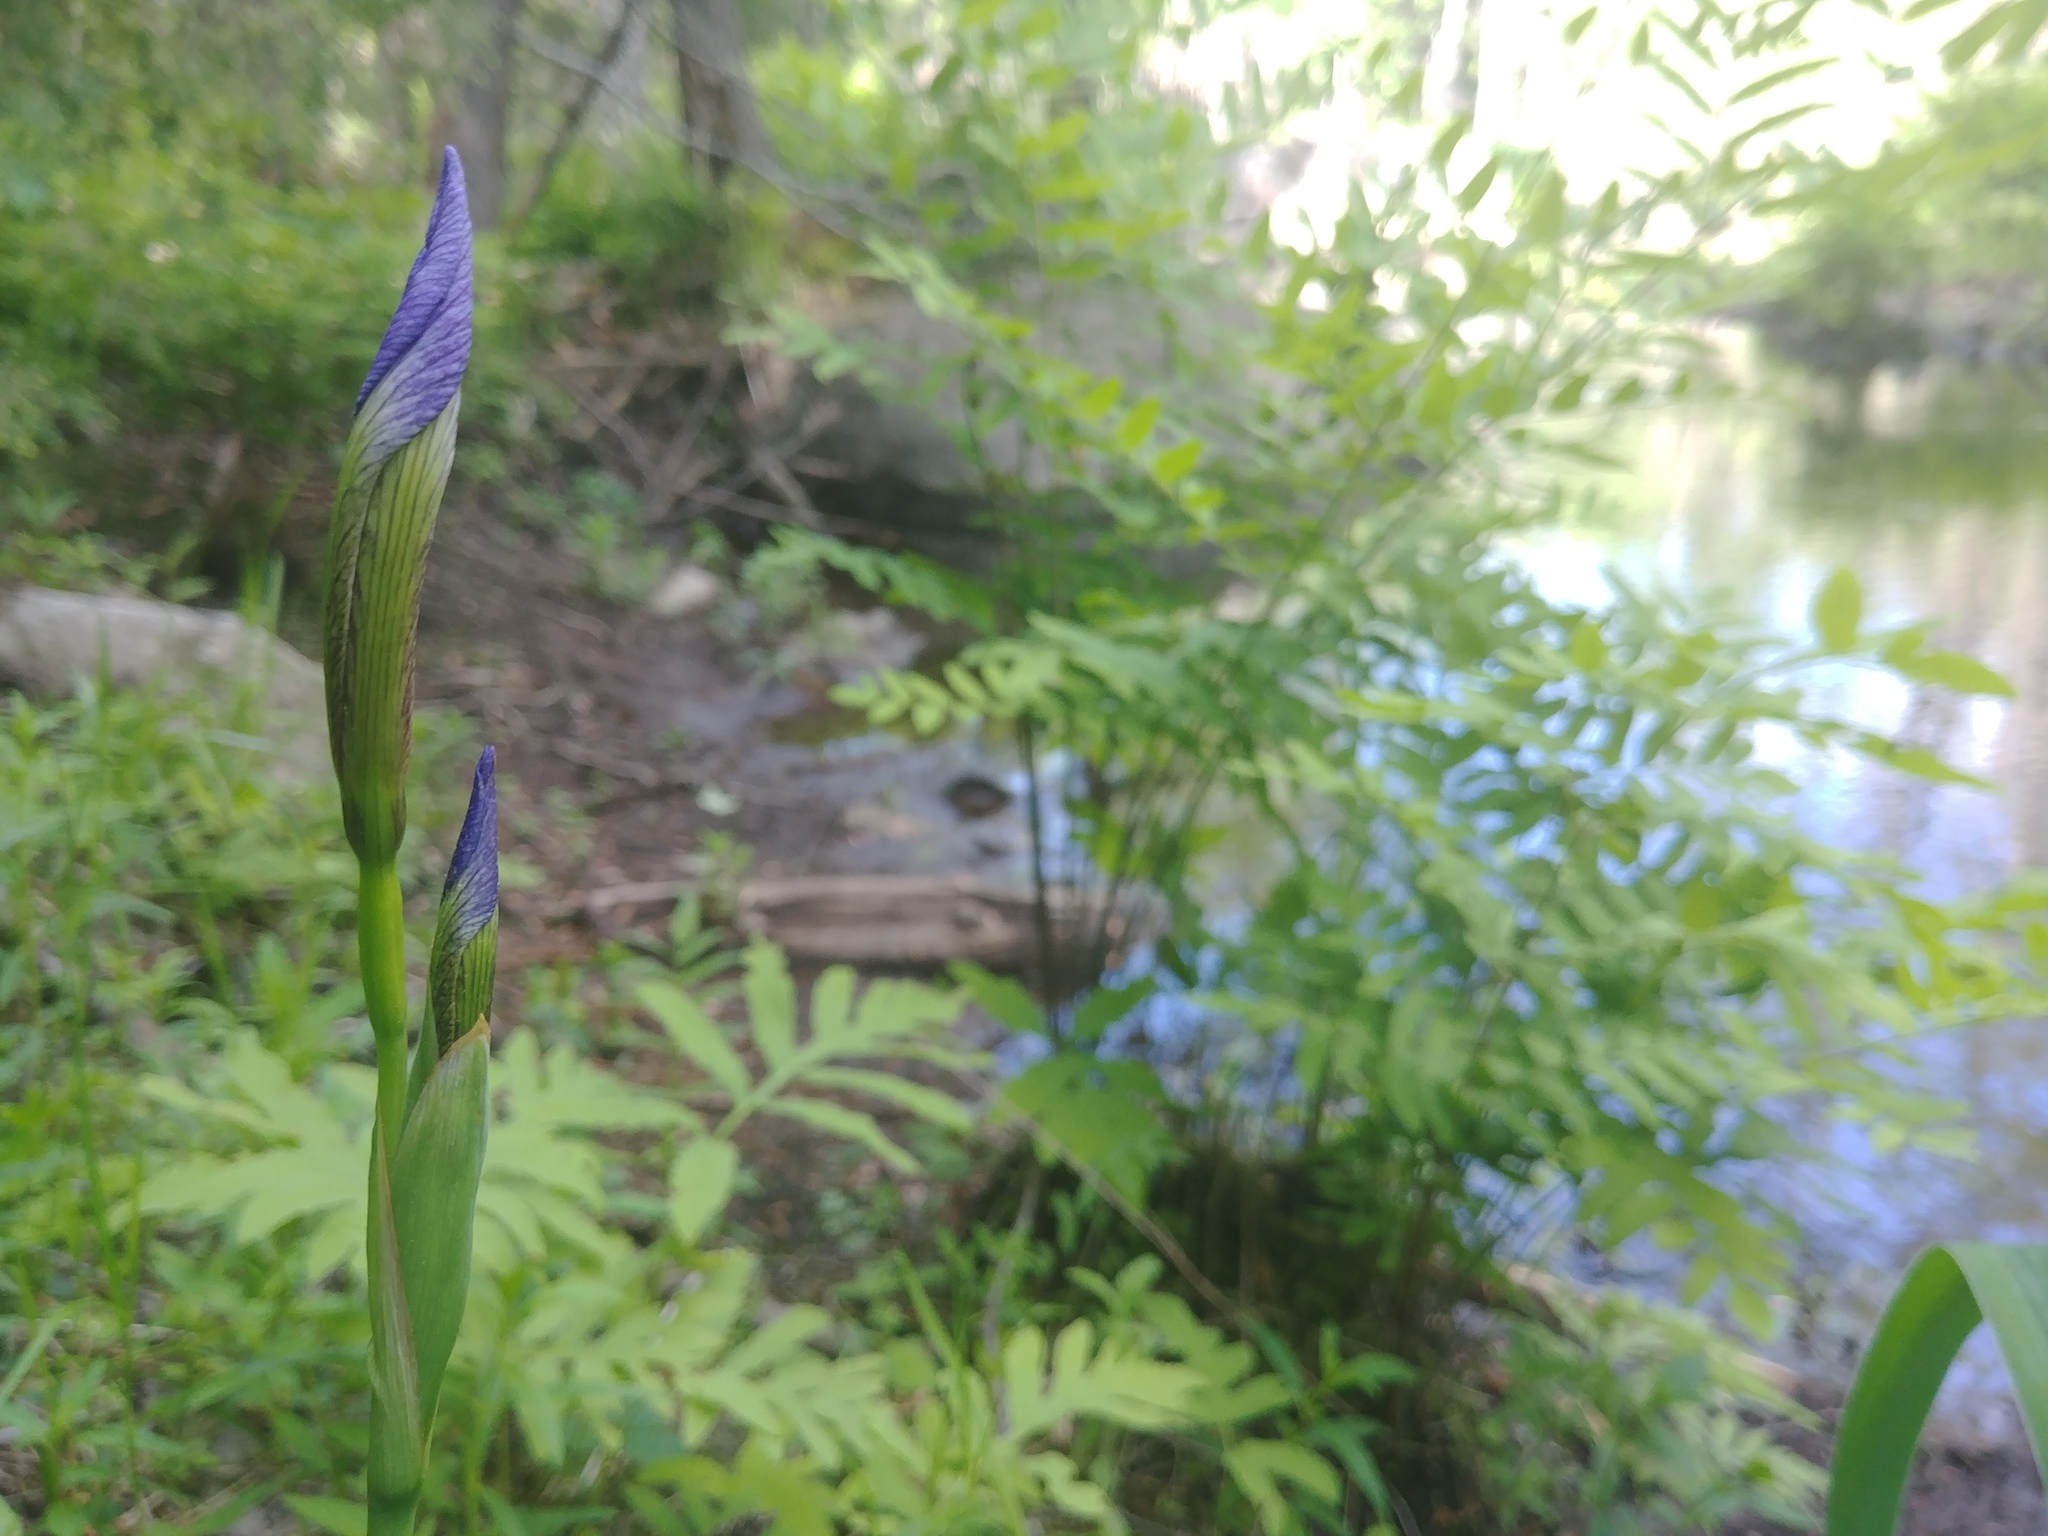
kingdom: Plantae
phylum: Tracheophyta
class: Liliopsida
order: Asparagales
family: Iridaceae
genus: Iris
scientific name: Iris versicolor
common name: Purple iris
